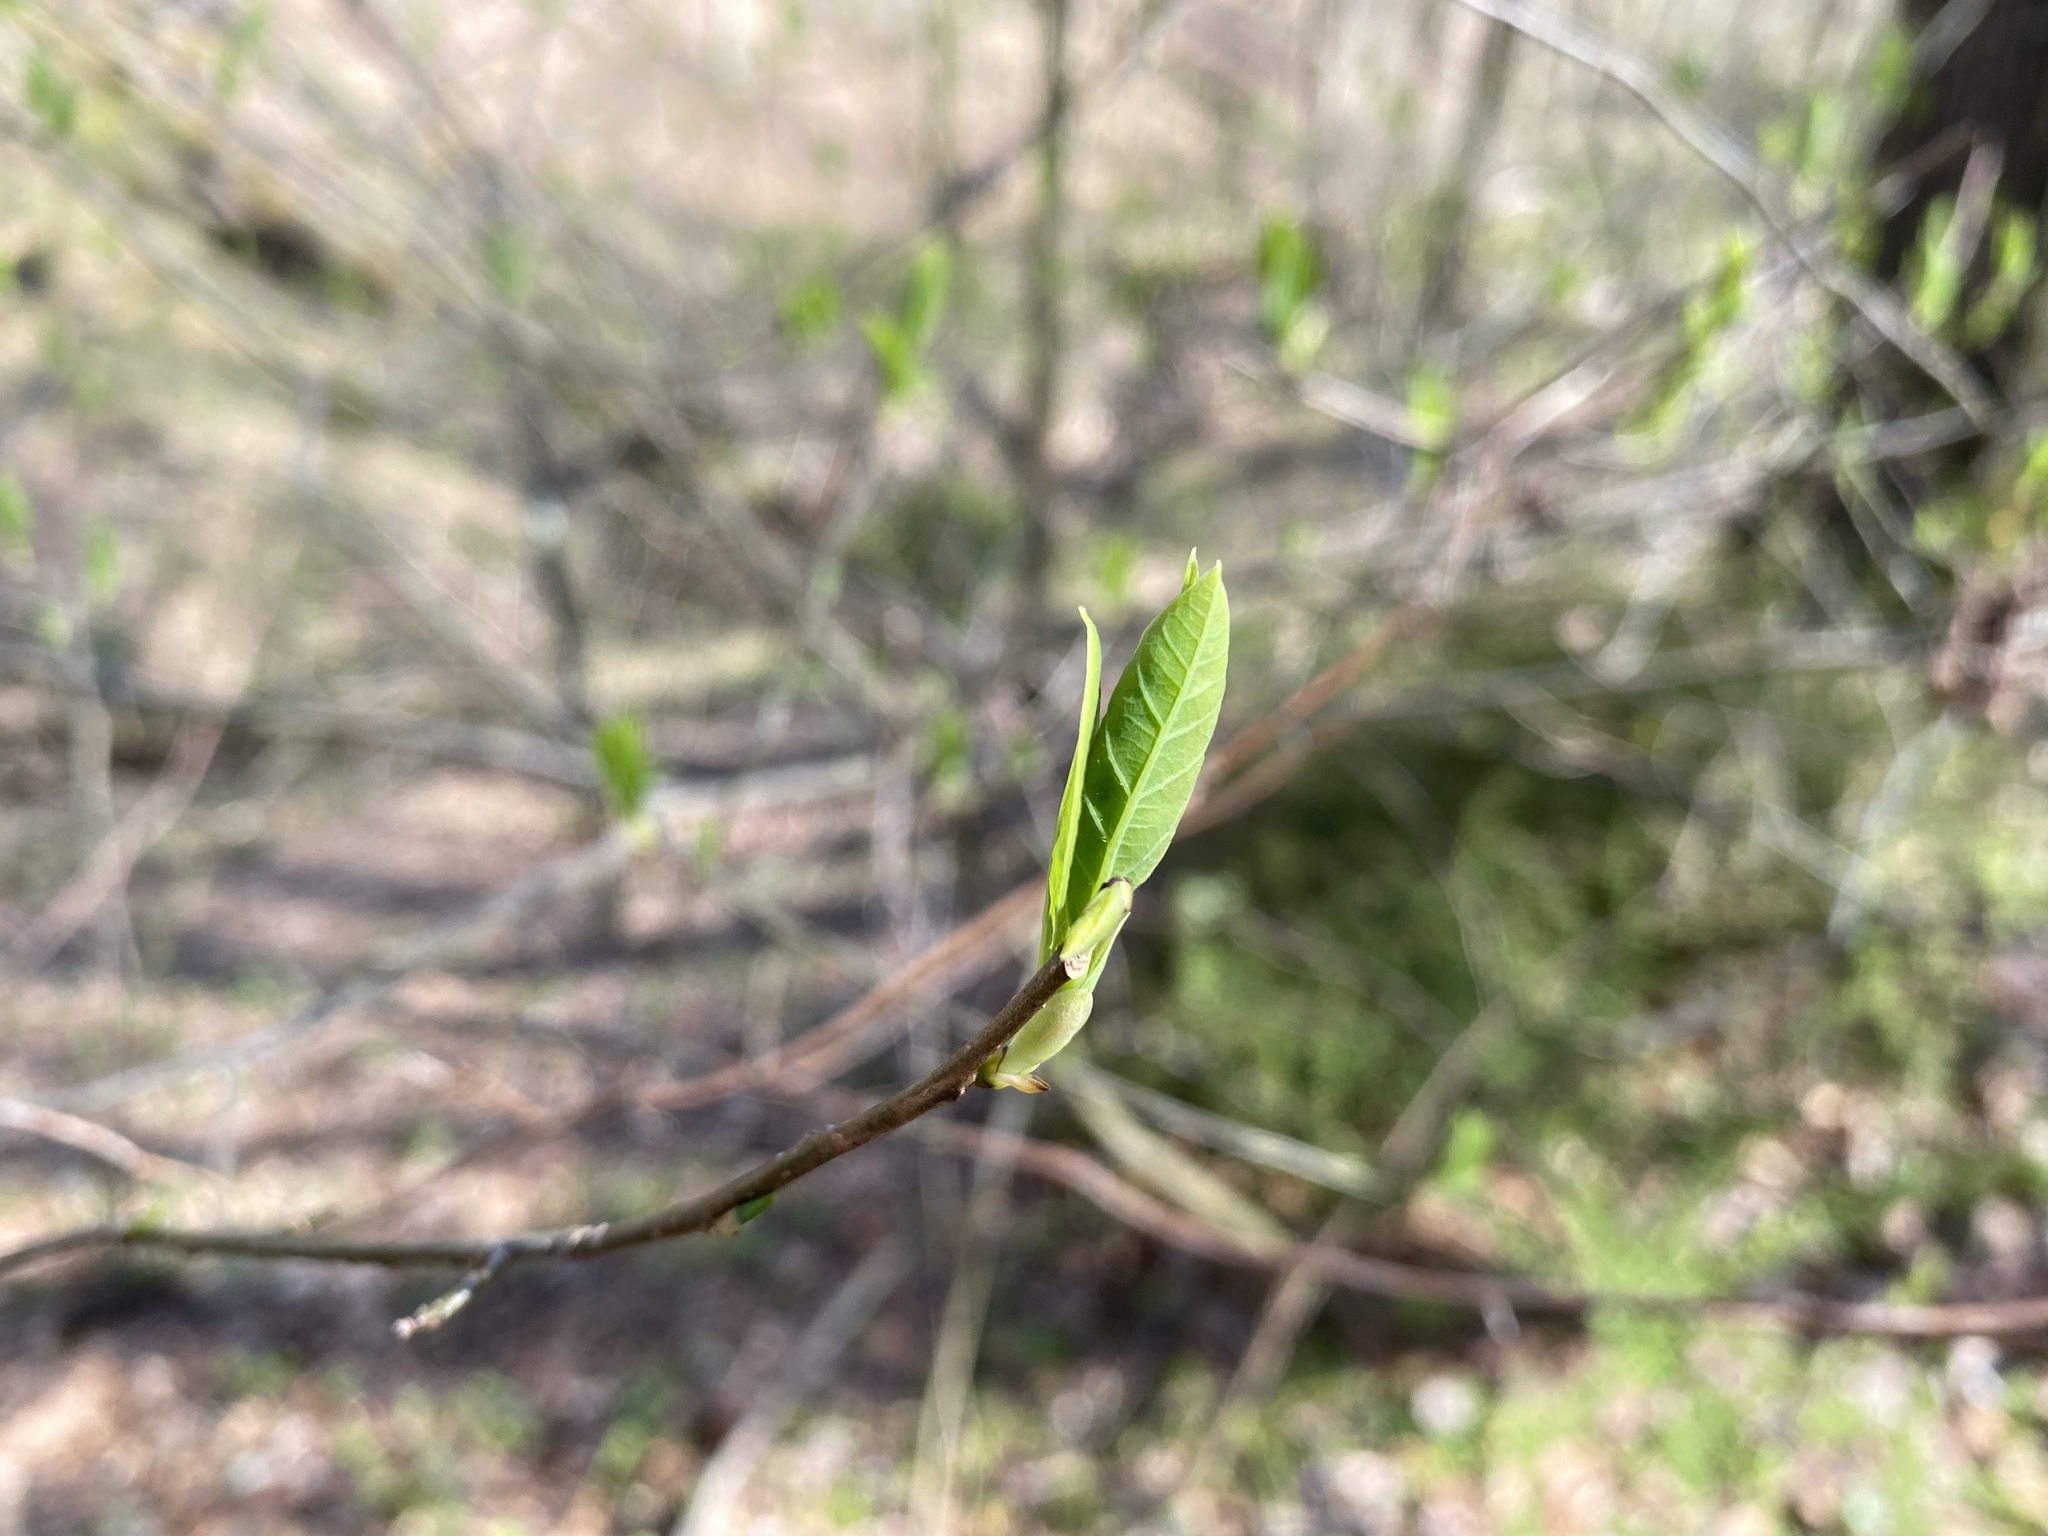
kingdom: Plantae
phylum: Tracheophyta
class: Magnoliopsida
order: Laurales
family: Lauraceae
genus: Lindera
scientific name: Lindera benzoin
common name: Spicebush
